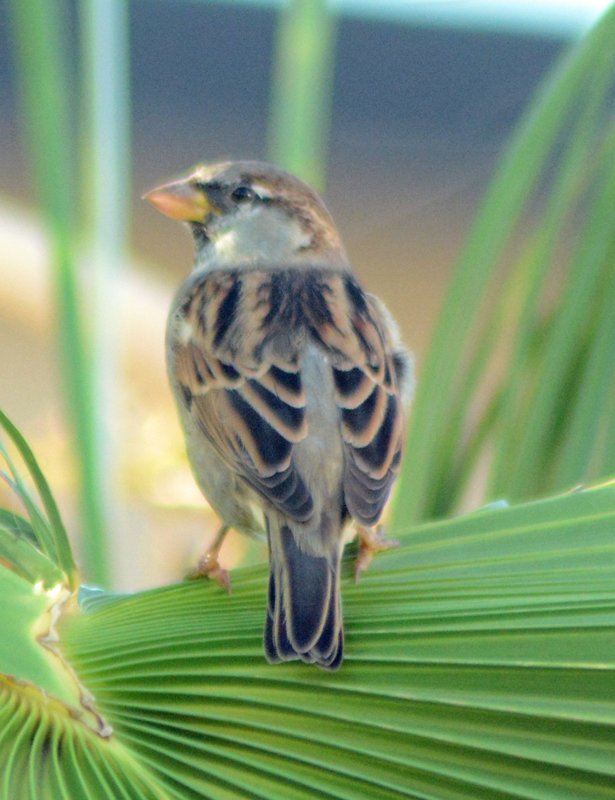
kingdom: Animalia
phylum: Chordata
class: Aves
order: Passeriformes
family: Passeridae
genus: Passer
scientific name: Passer domesticus
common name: House sparrow
